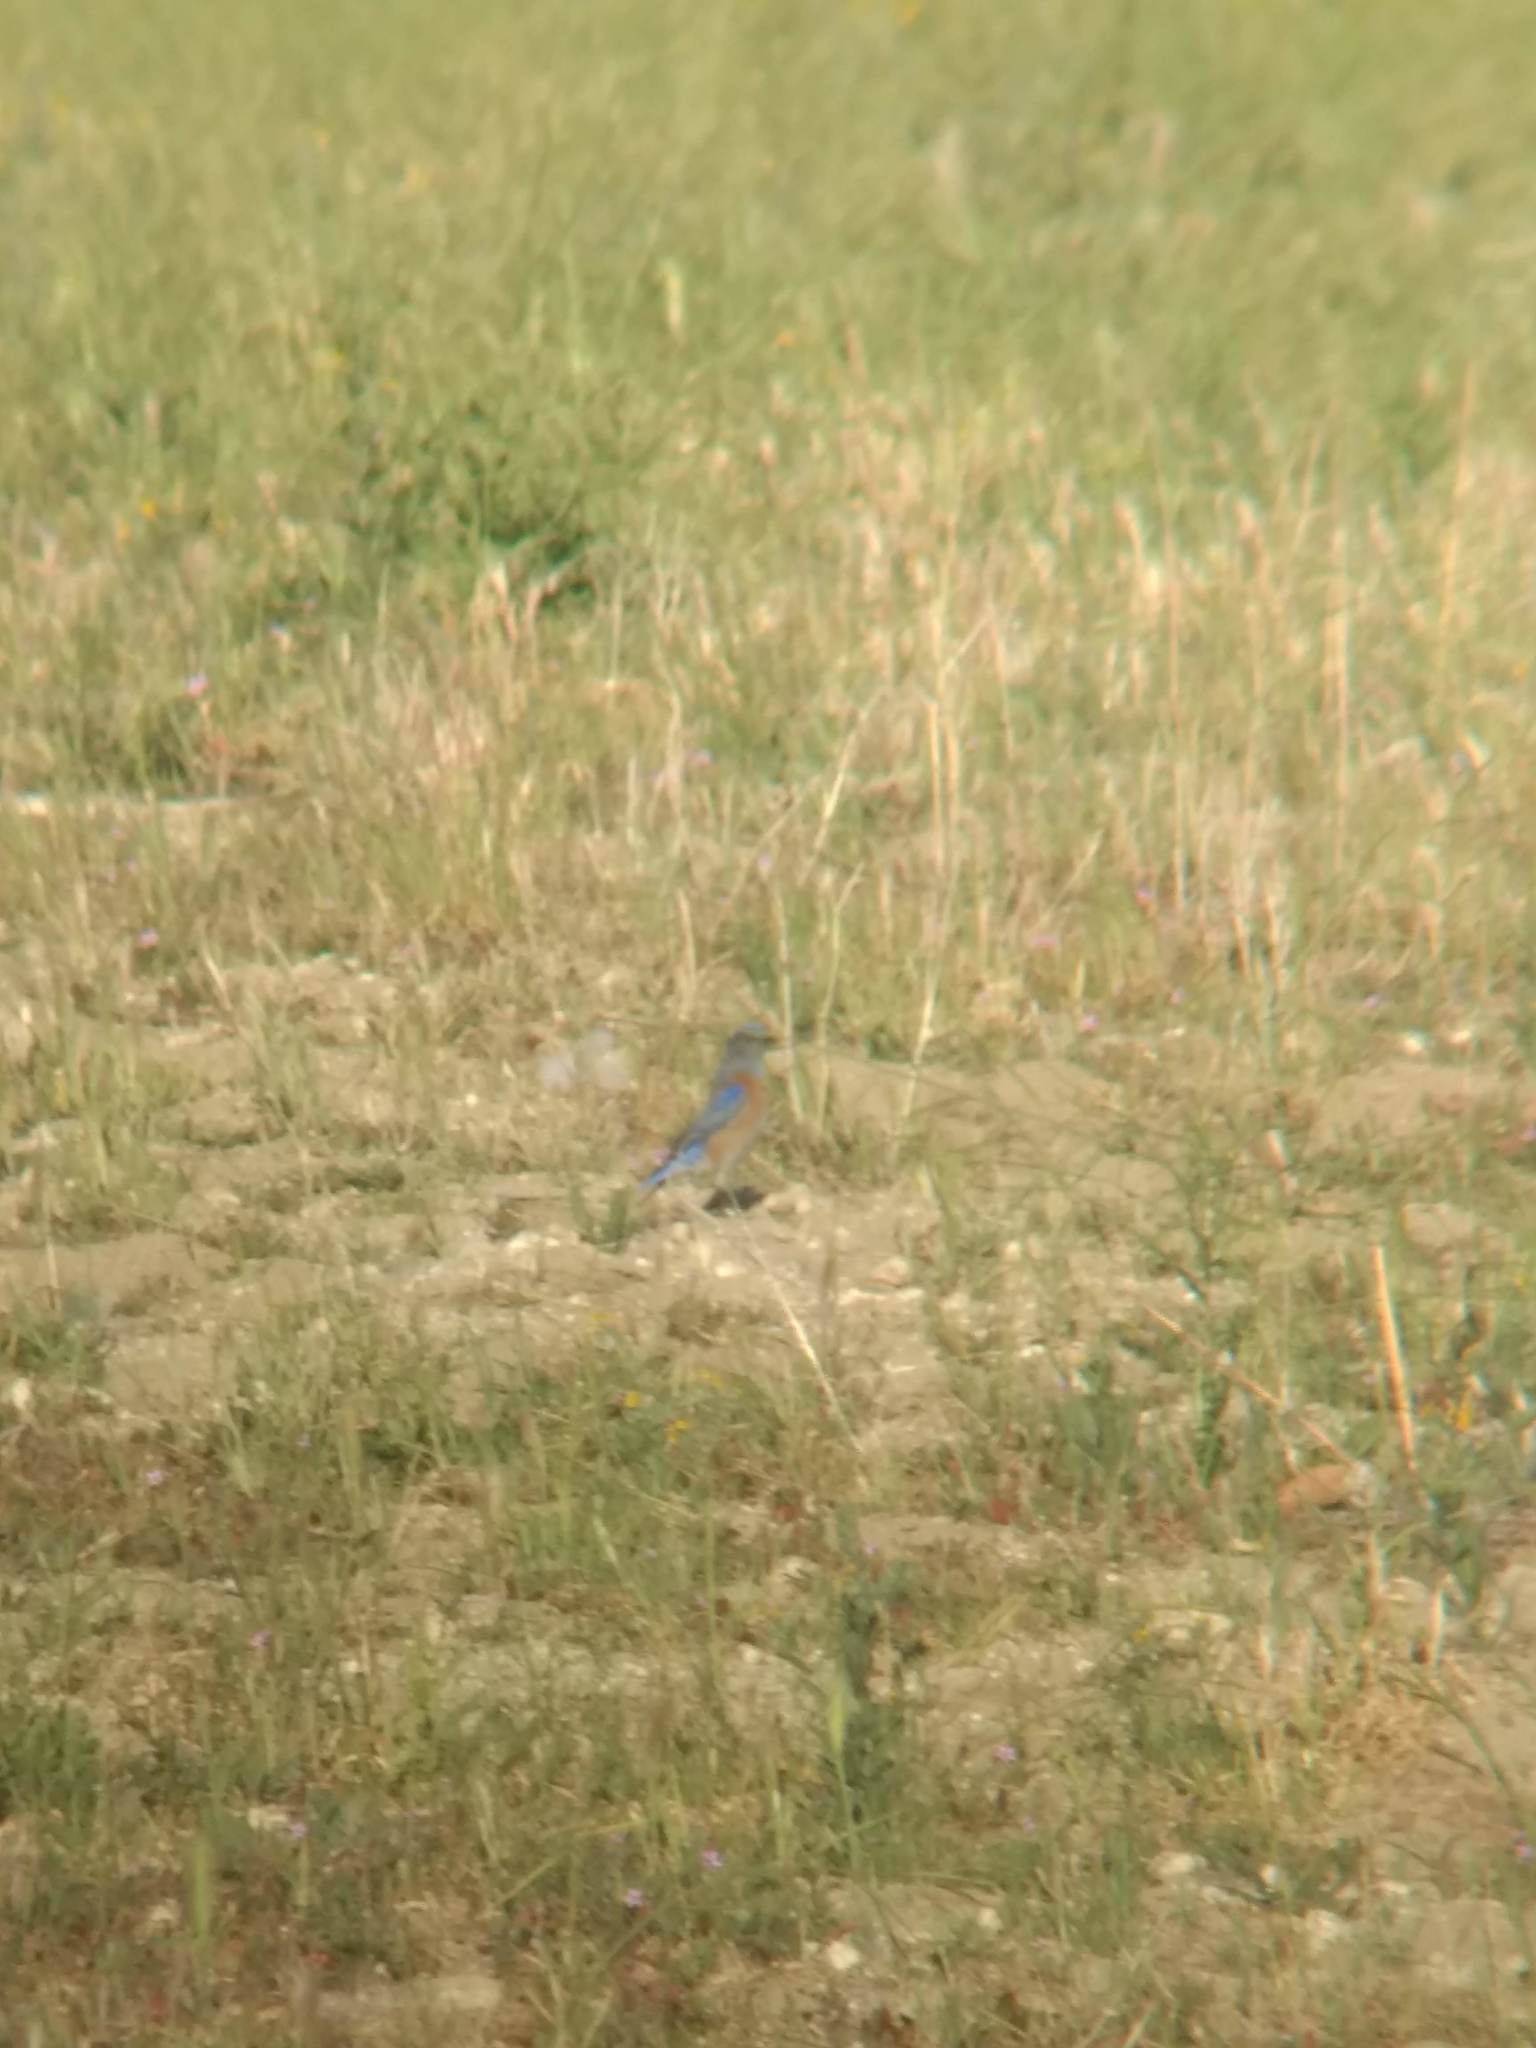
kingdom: Animalia
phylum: Chordata
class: Aves
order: Passeriformes
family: Turdidae
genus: Sialia
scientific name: Sialia mexicana
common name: Western bluebird
